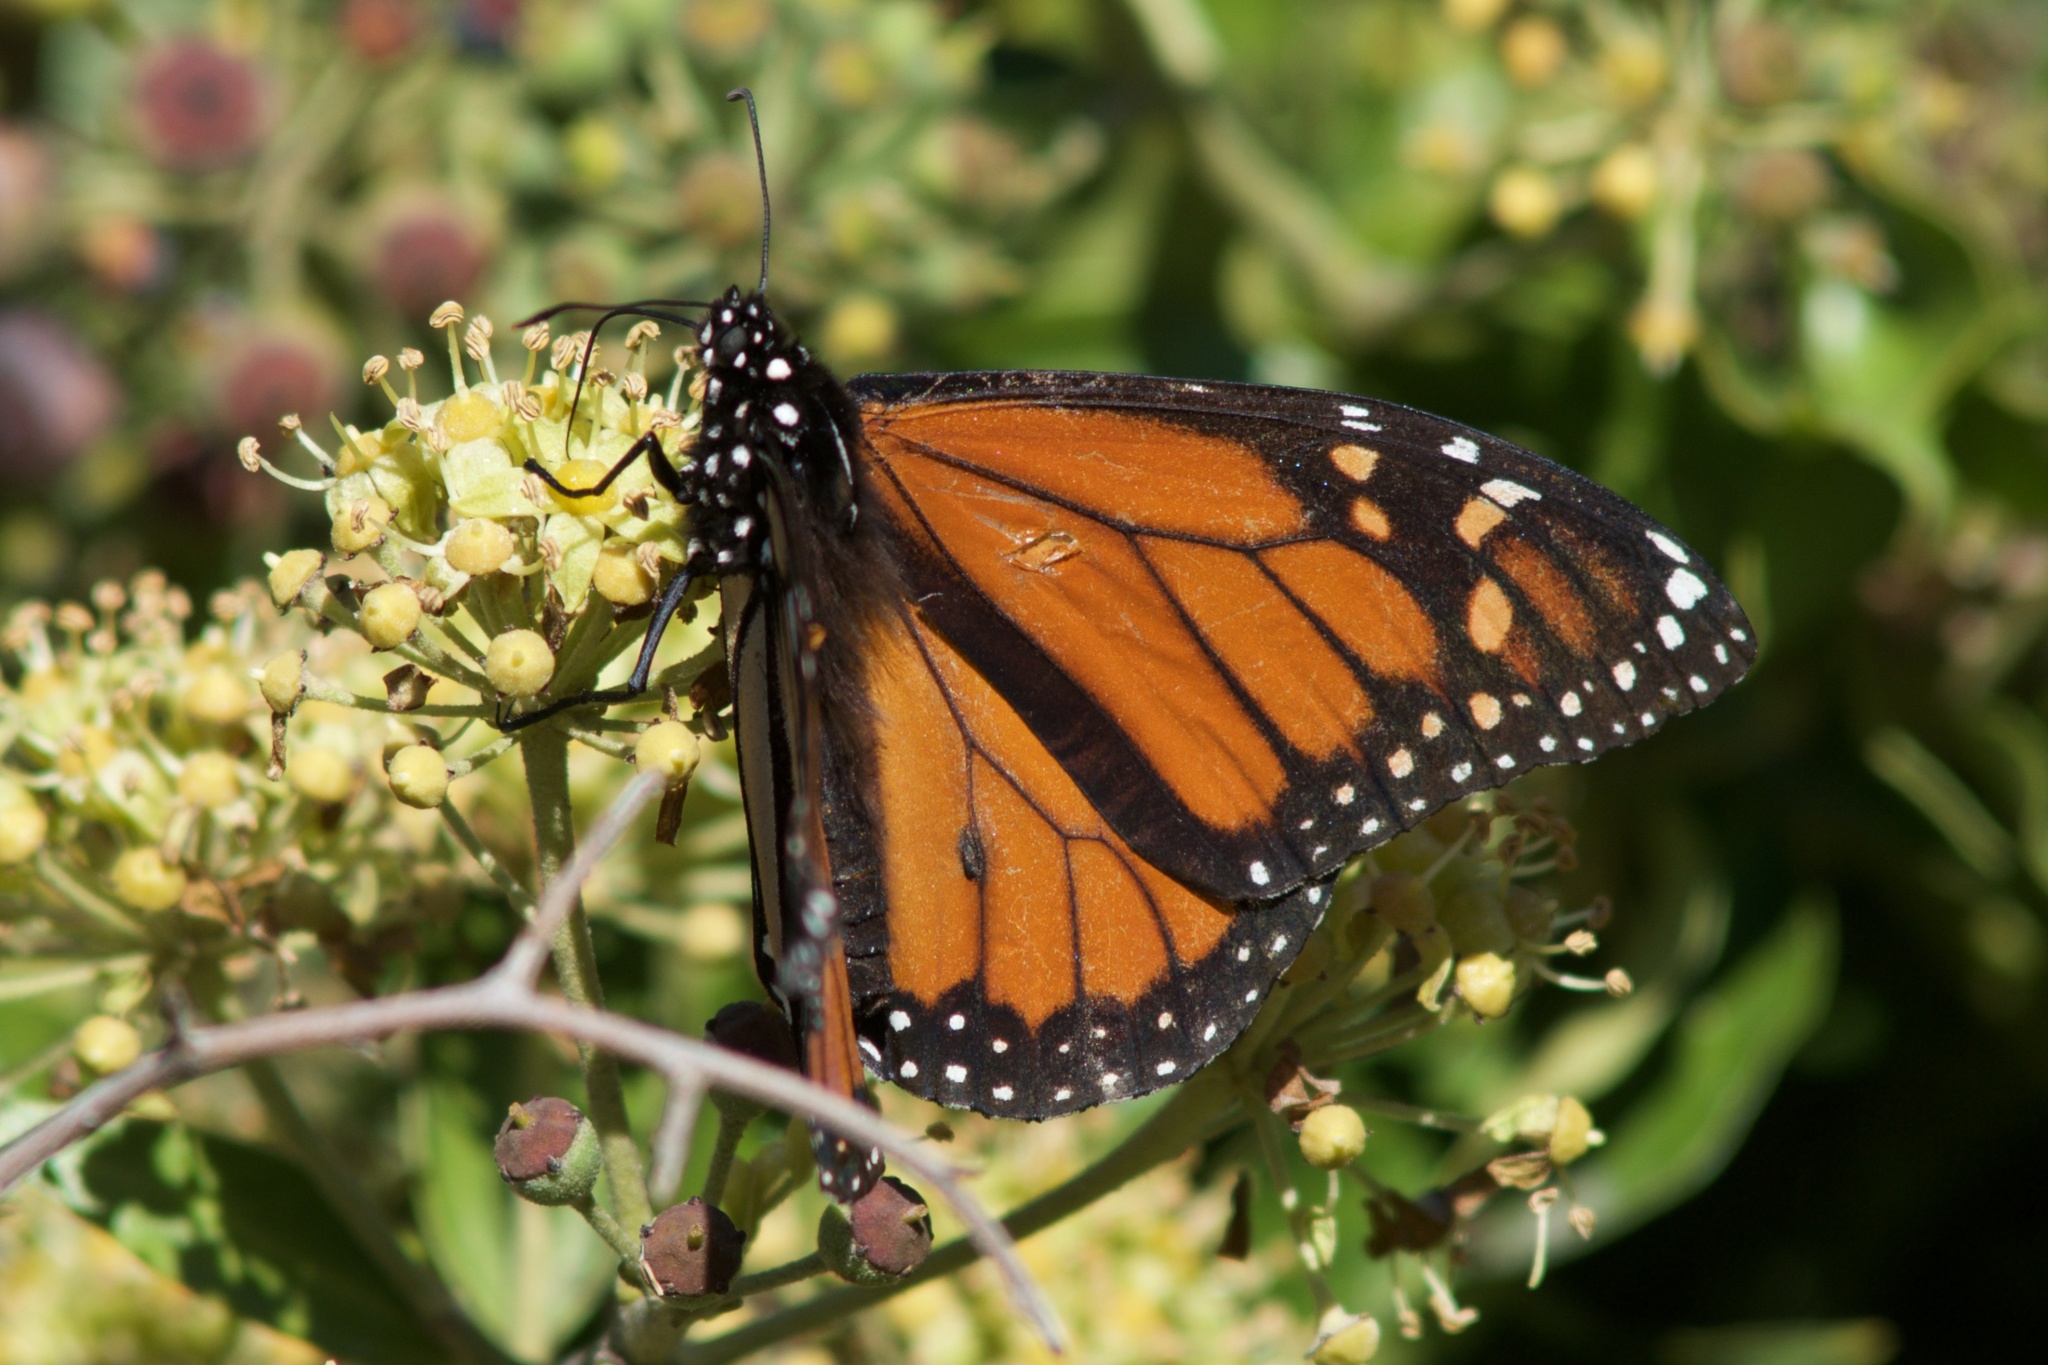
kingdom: Animalia
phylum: Arthropoda
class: Insecta
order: Lepidoptera
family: Nymphalidae
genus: Danaus
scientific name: Danaus plexippus
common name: Monarch
